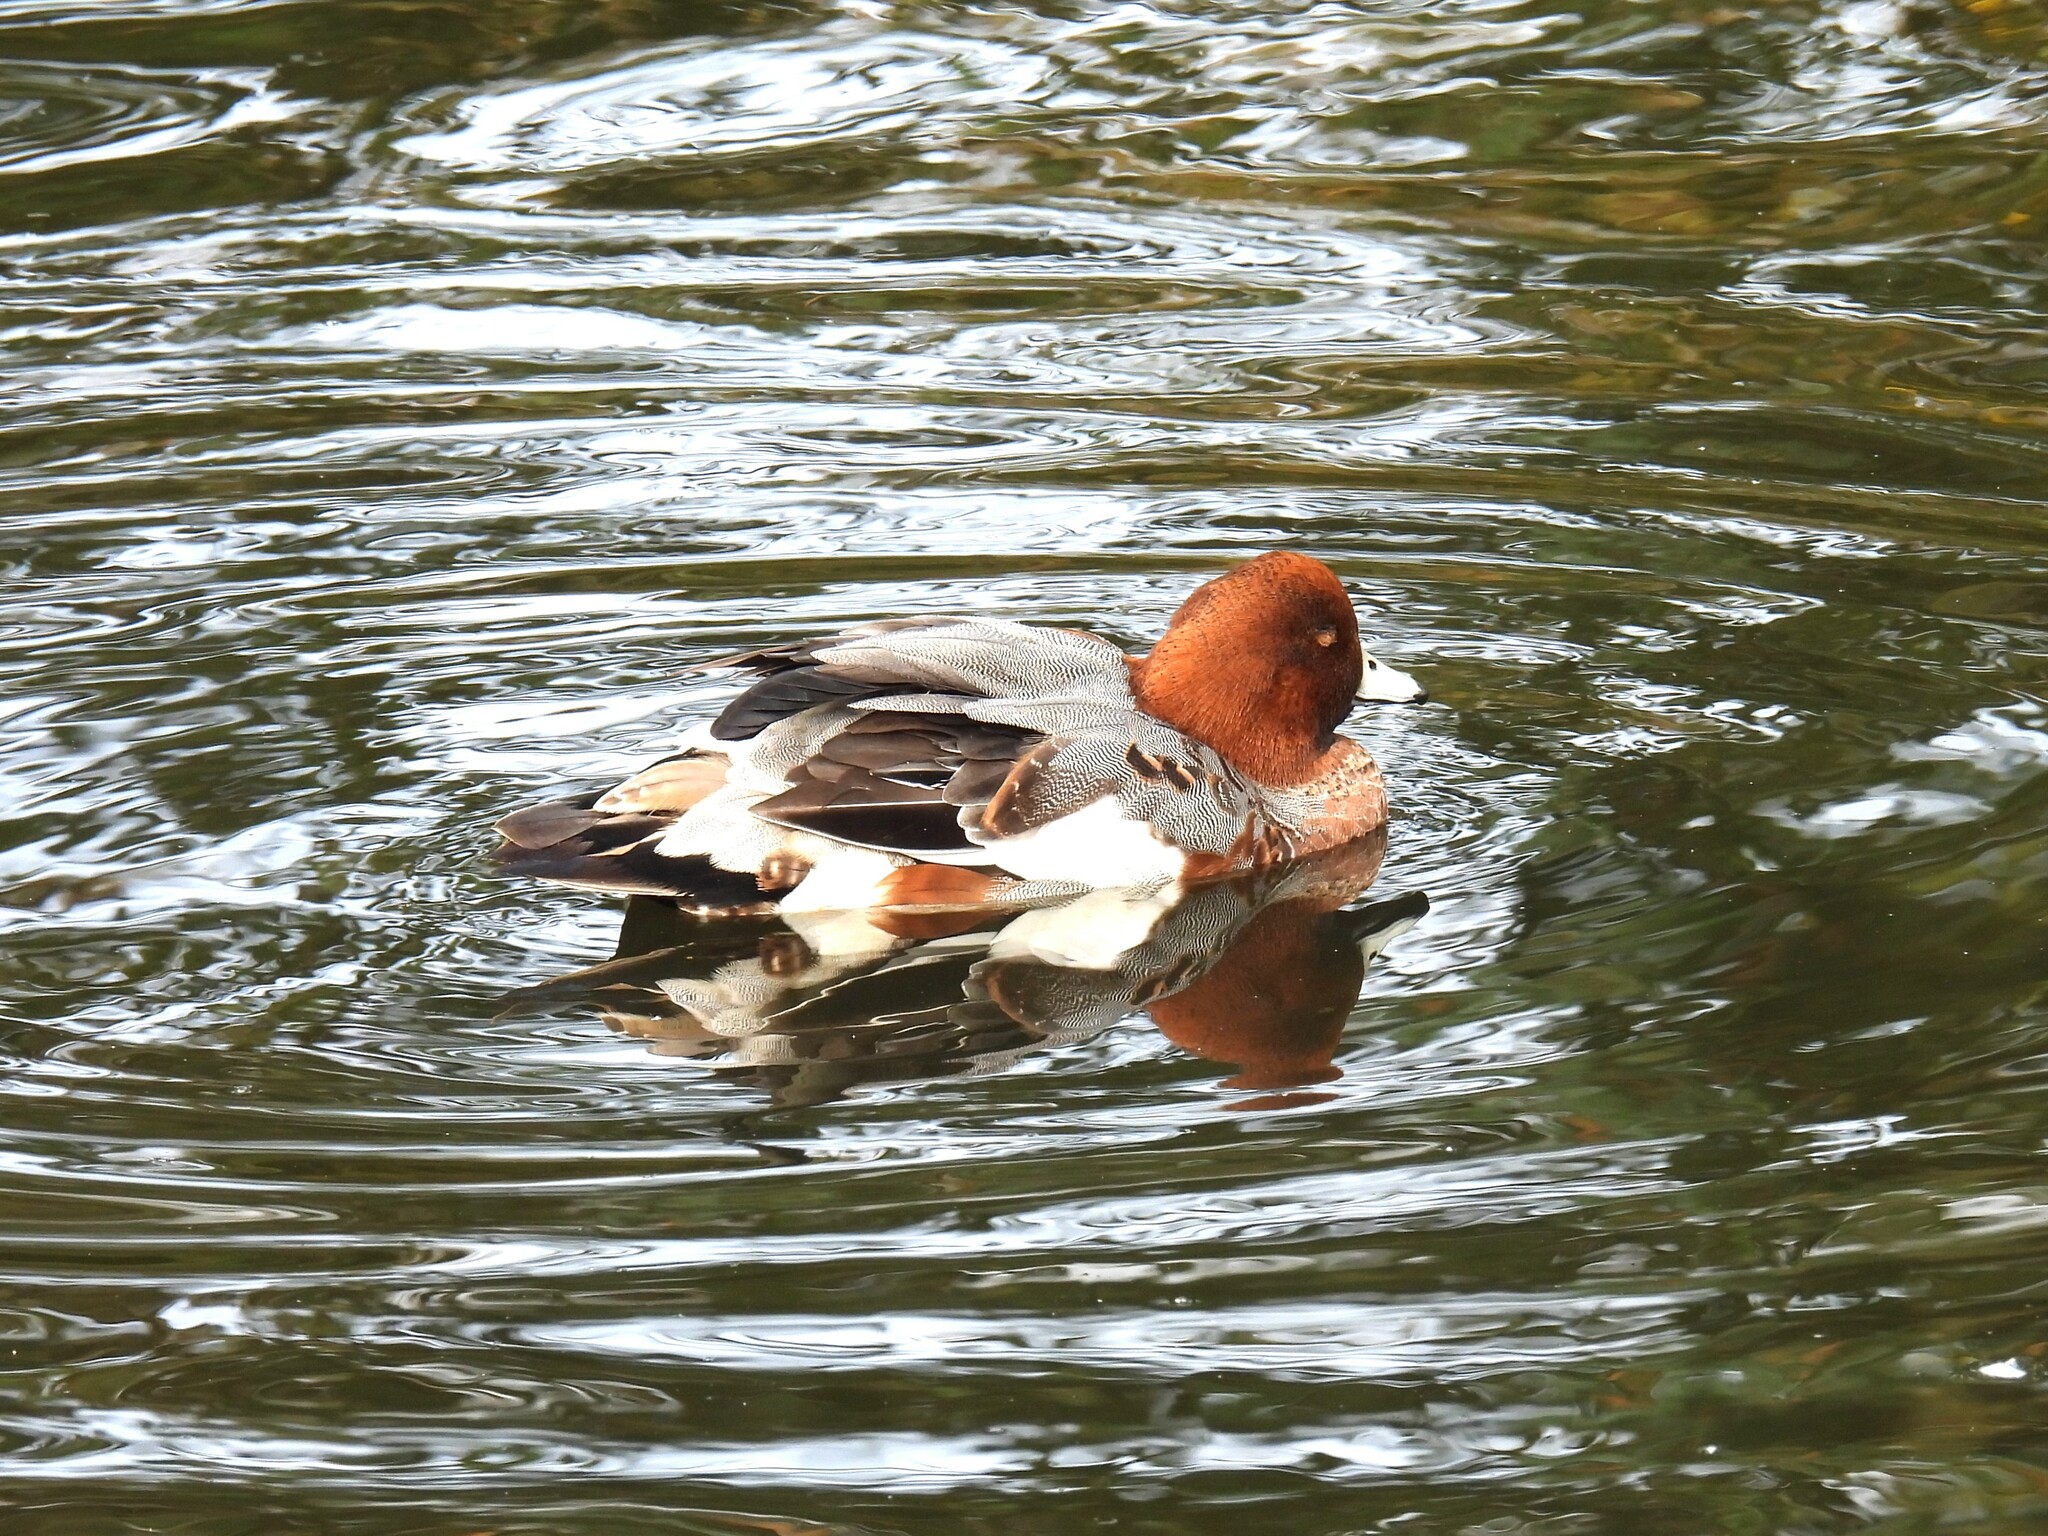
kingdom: Animalia
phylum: Chordata
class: Aves
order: Anseriformes
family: Anatidae
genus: Mareca
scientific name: Mareca penelope
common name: Eurasian wigeon
